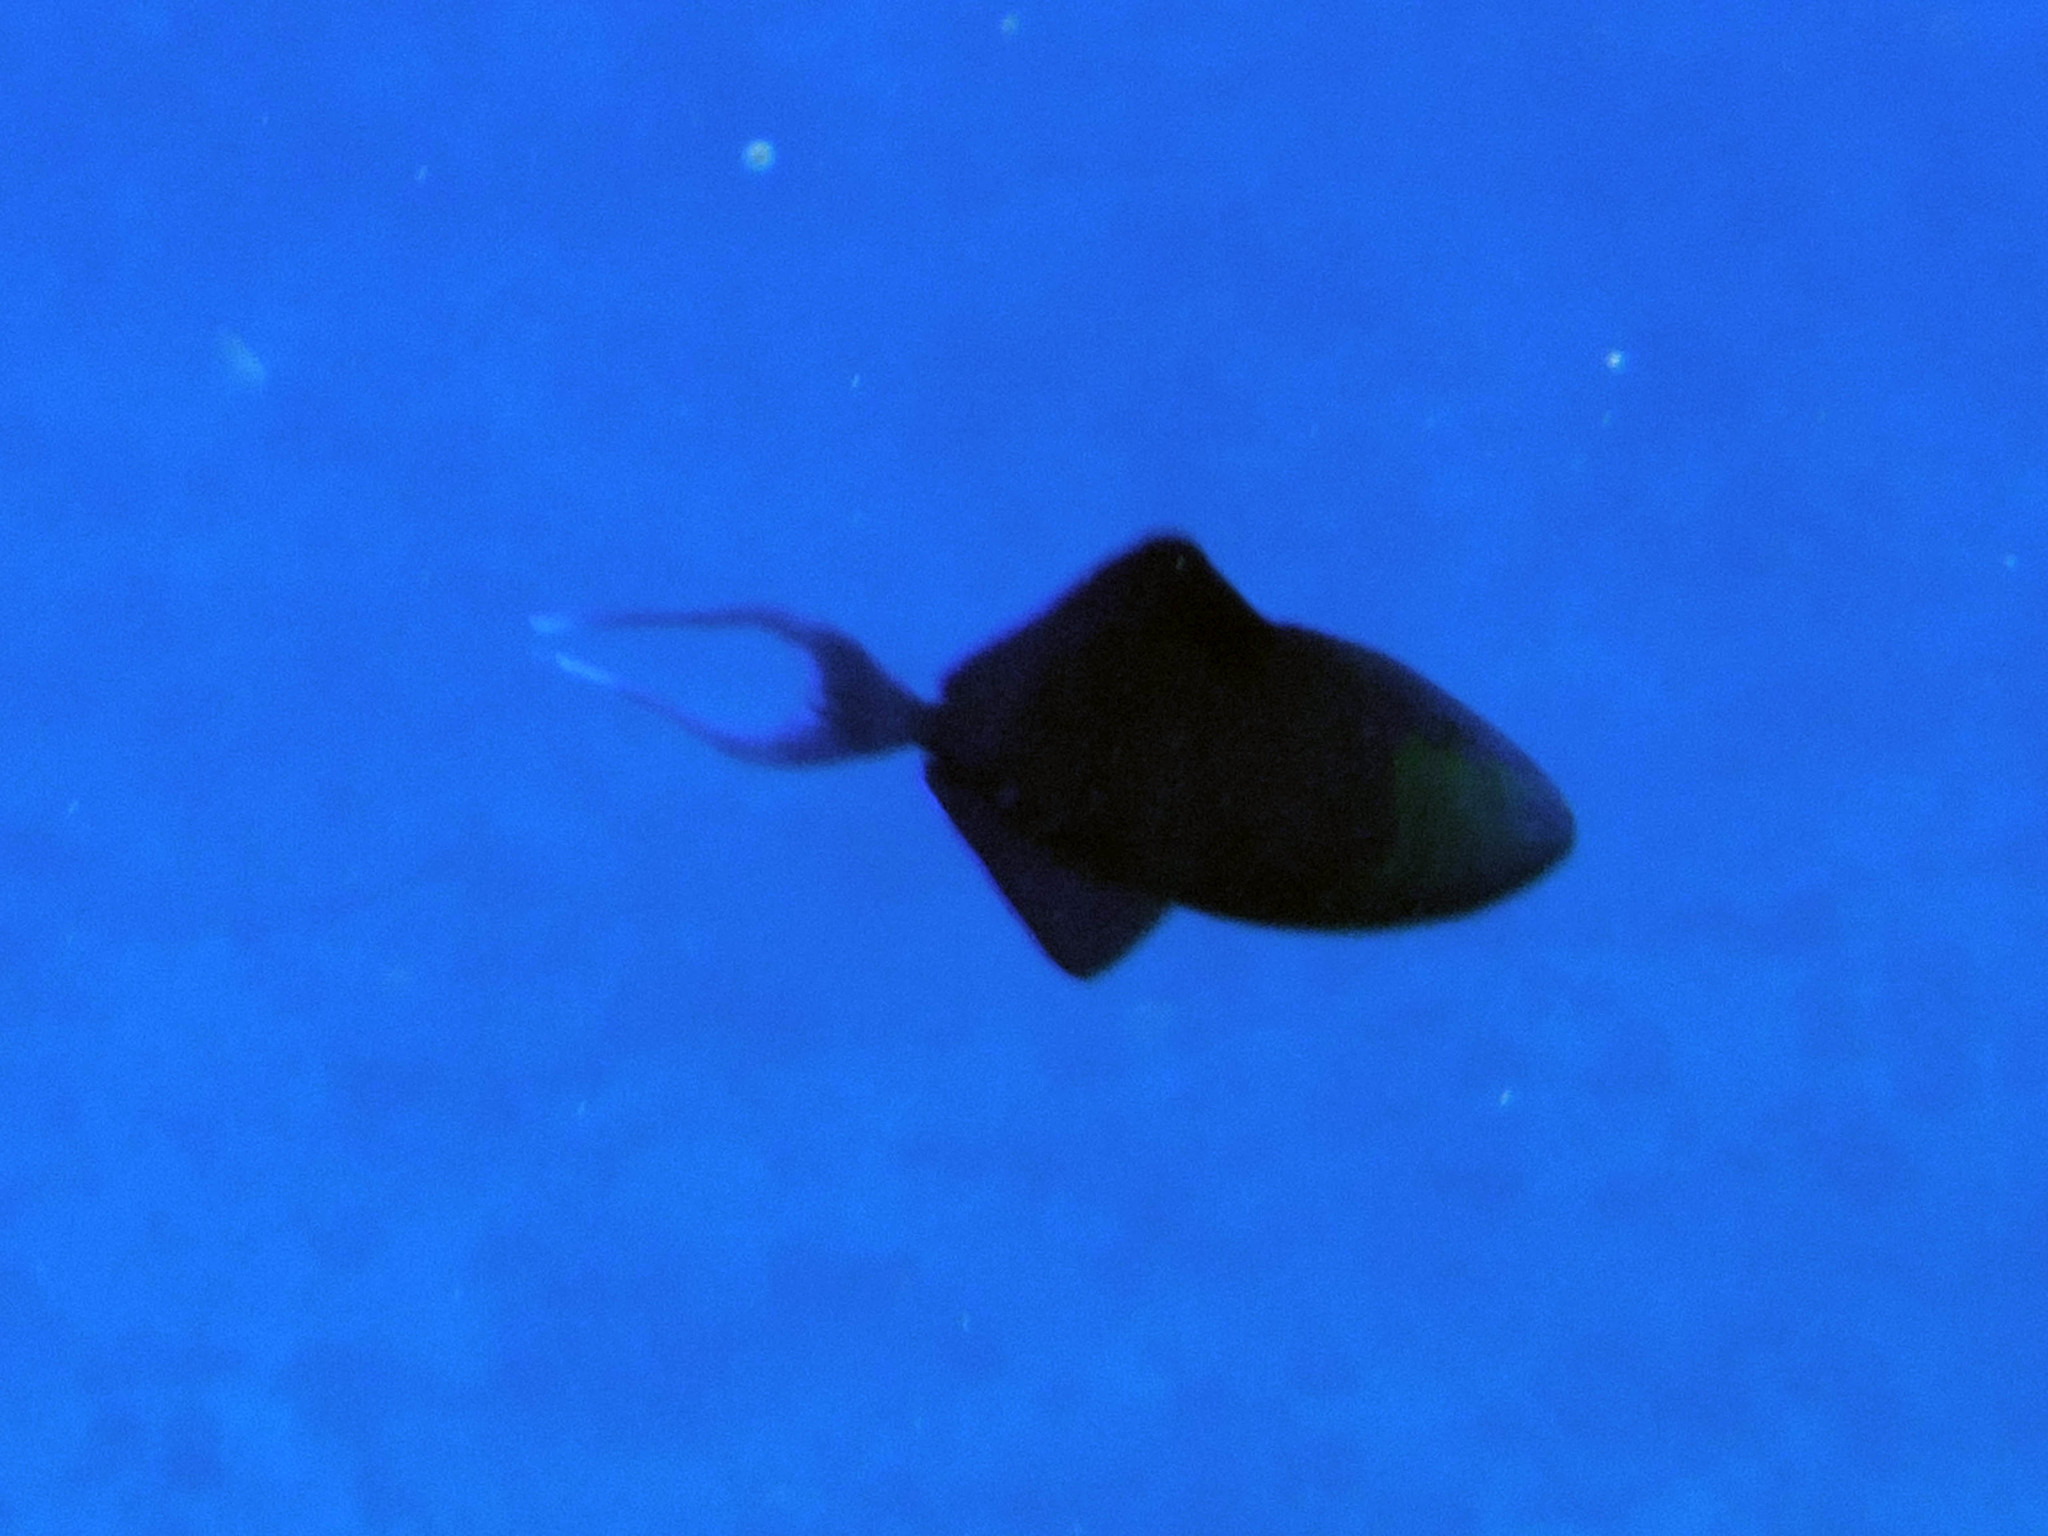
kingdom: Animalia
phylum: Chordata
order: Tetraodontiformes
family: Balistidae
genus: Odonus
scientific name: Odonus niger
